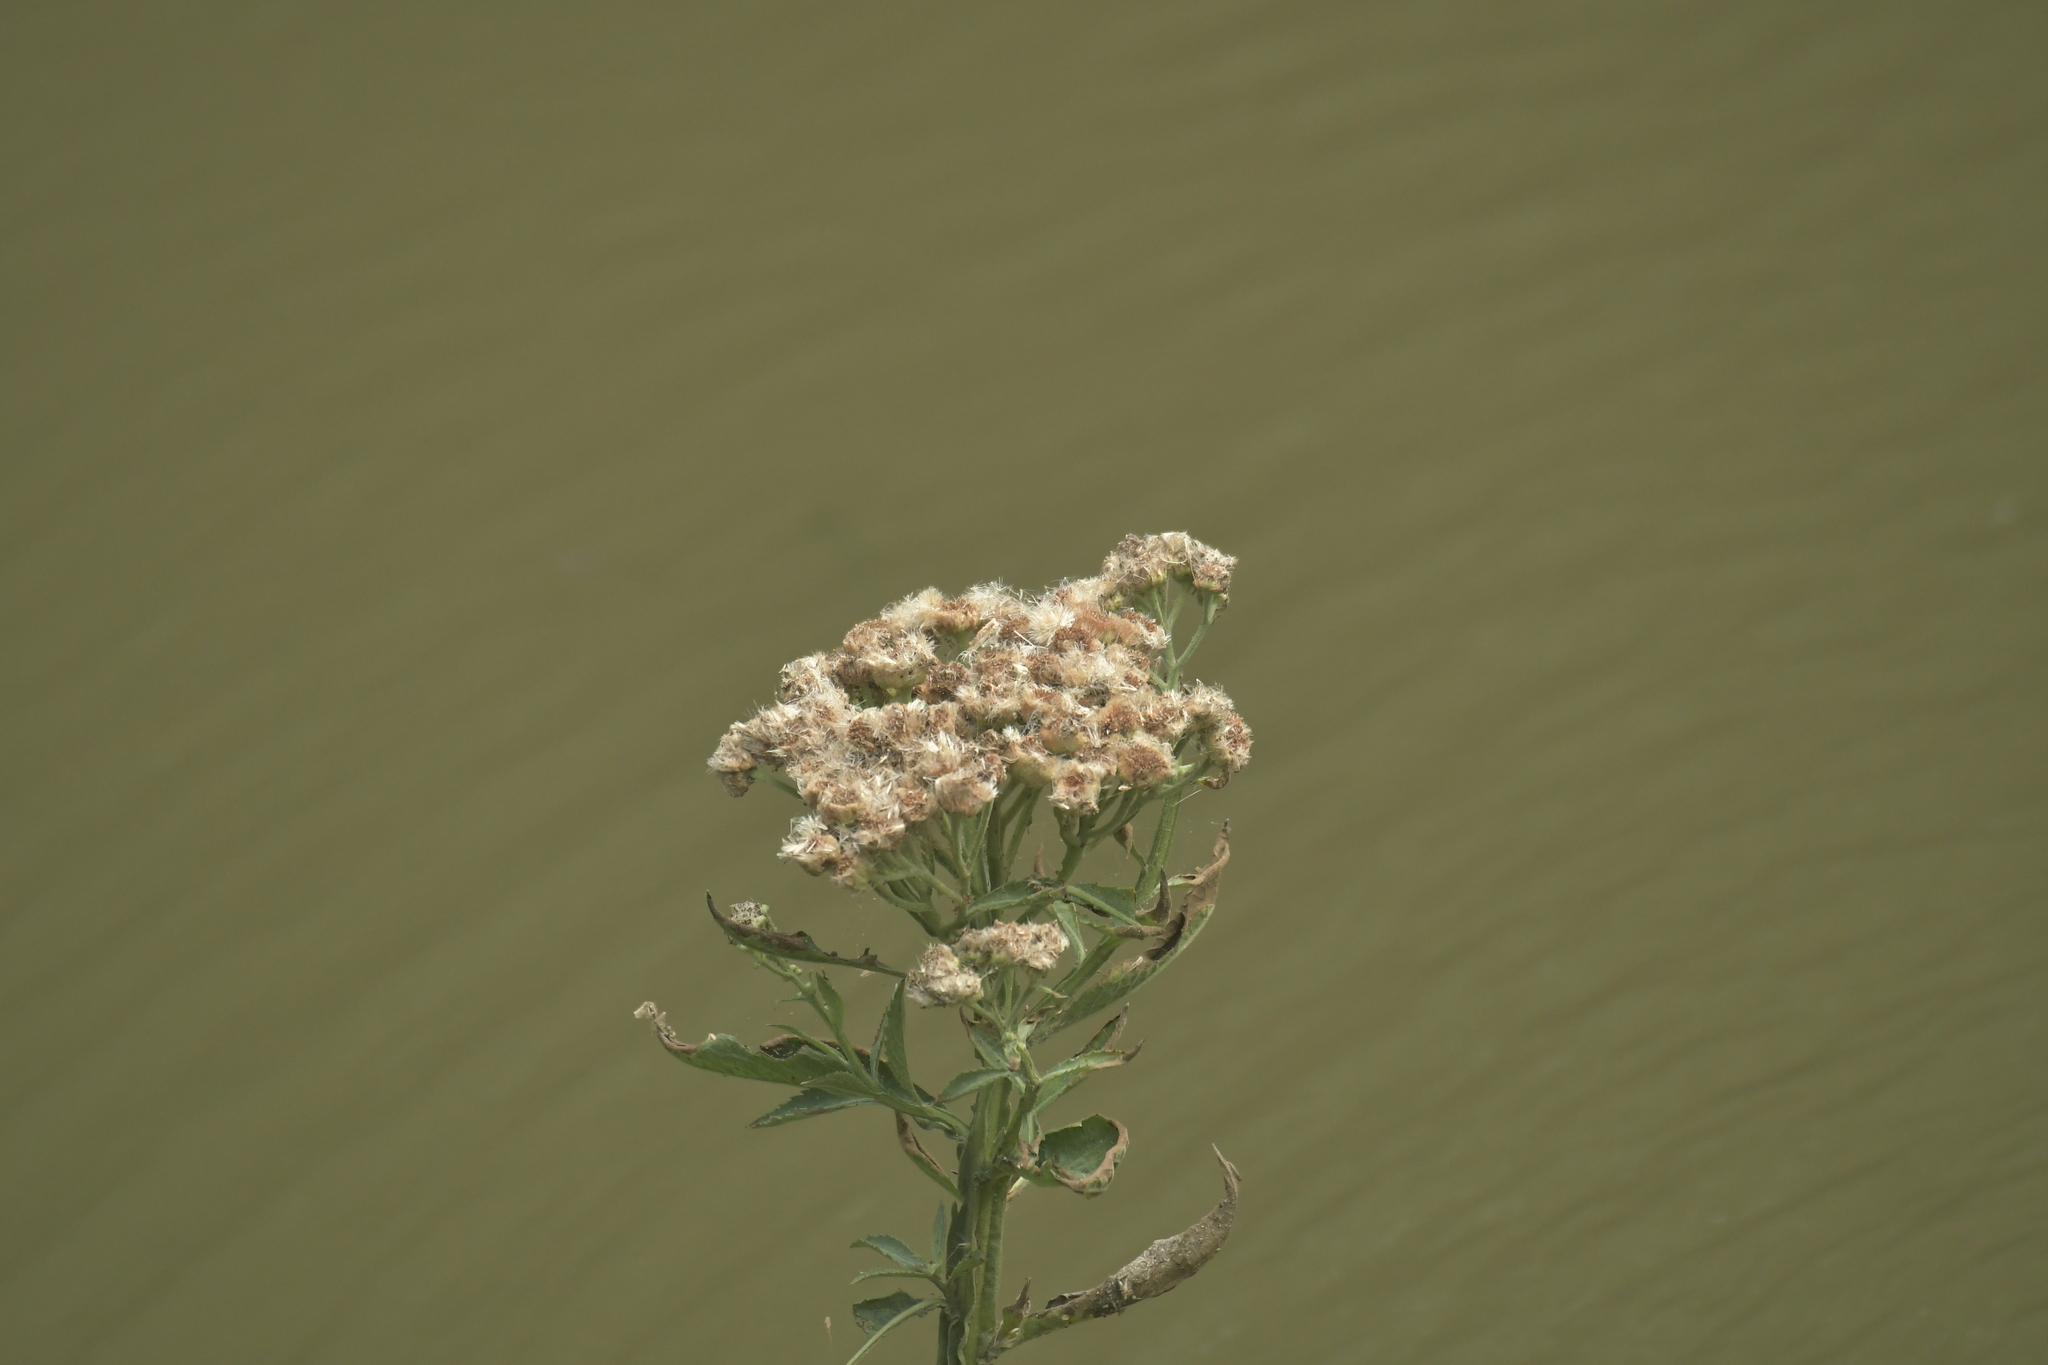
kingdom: Plantae
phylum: Tracheophyta
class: Magnoliopsida
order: Asterales
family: Asteraceae
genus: Pluchea
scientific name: Pluchea sagittalis
